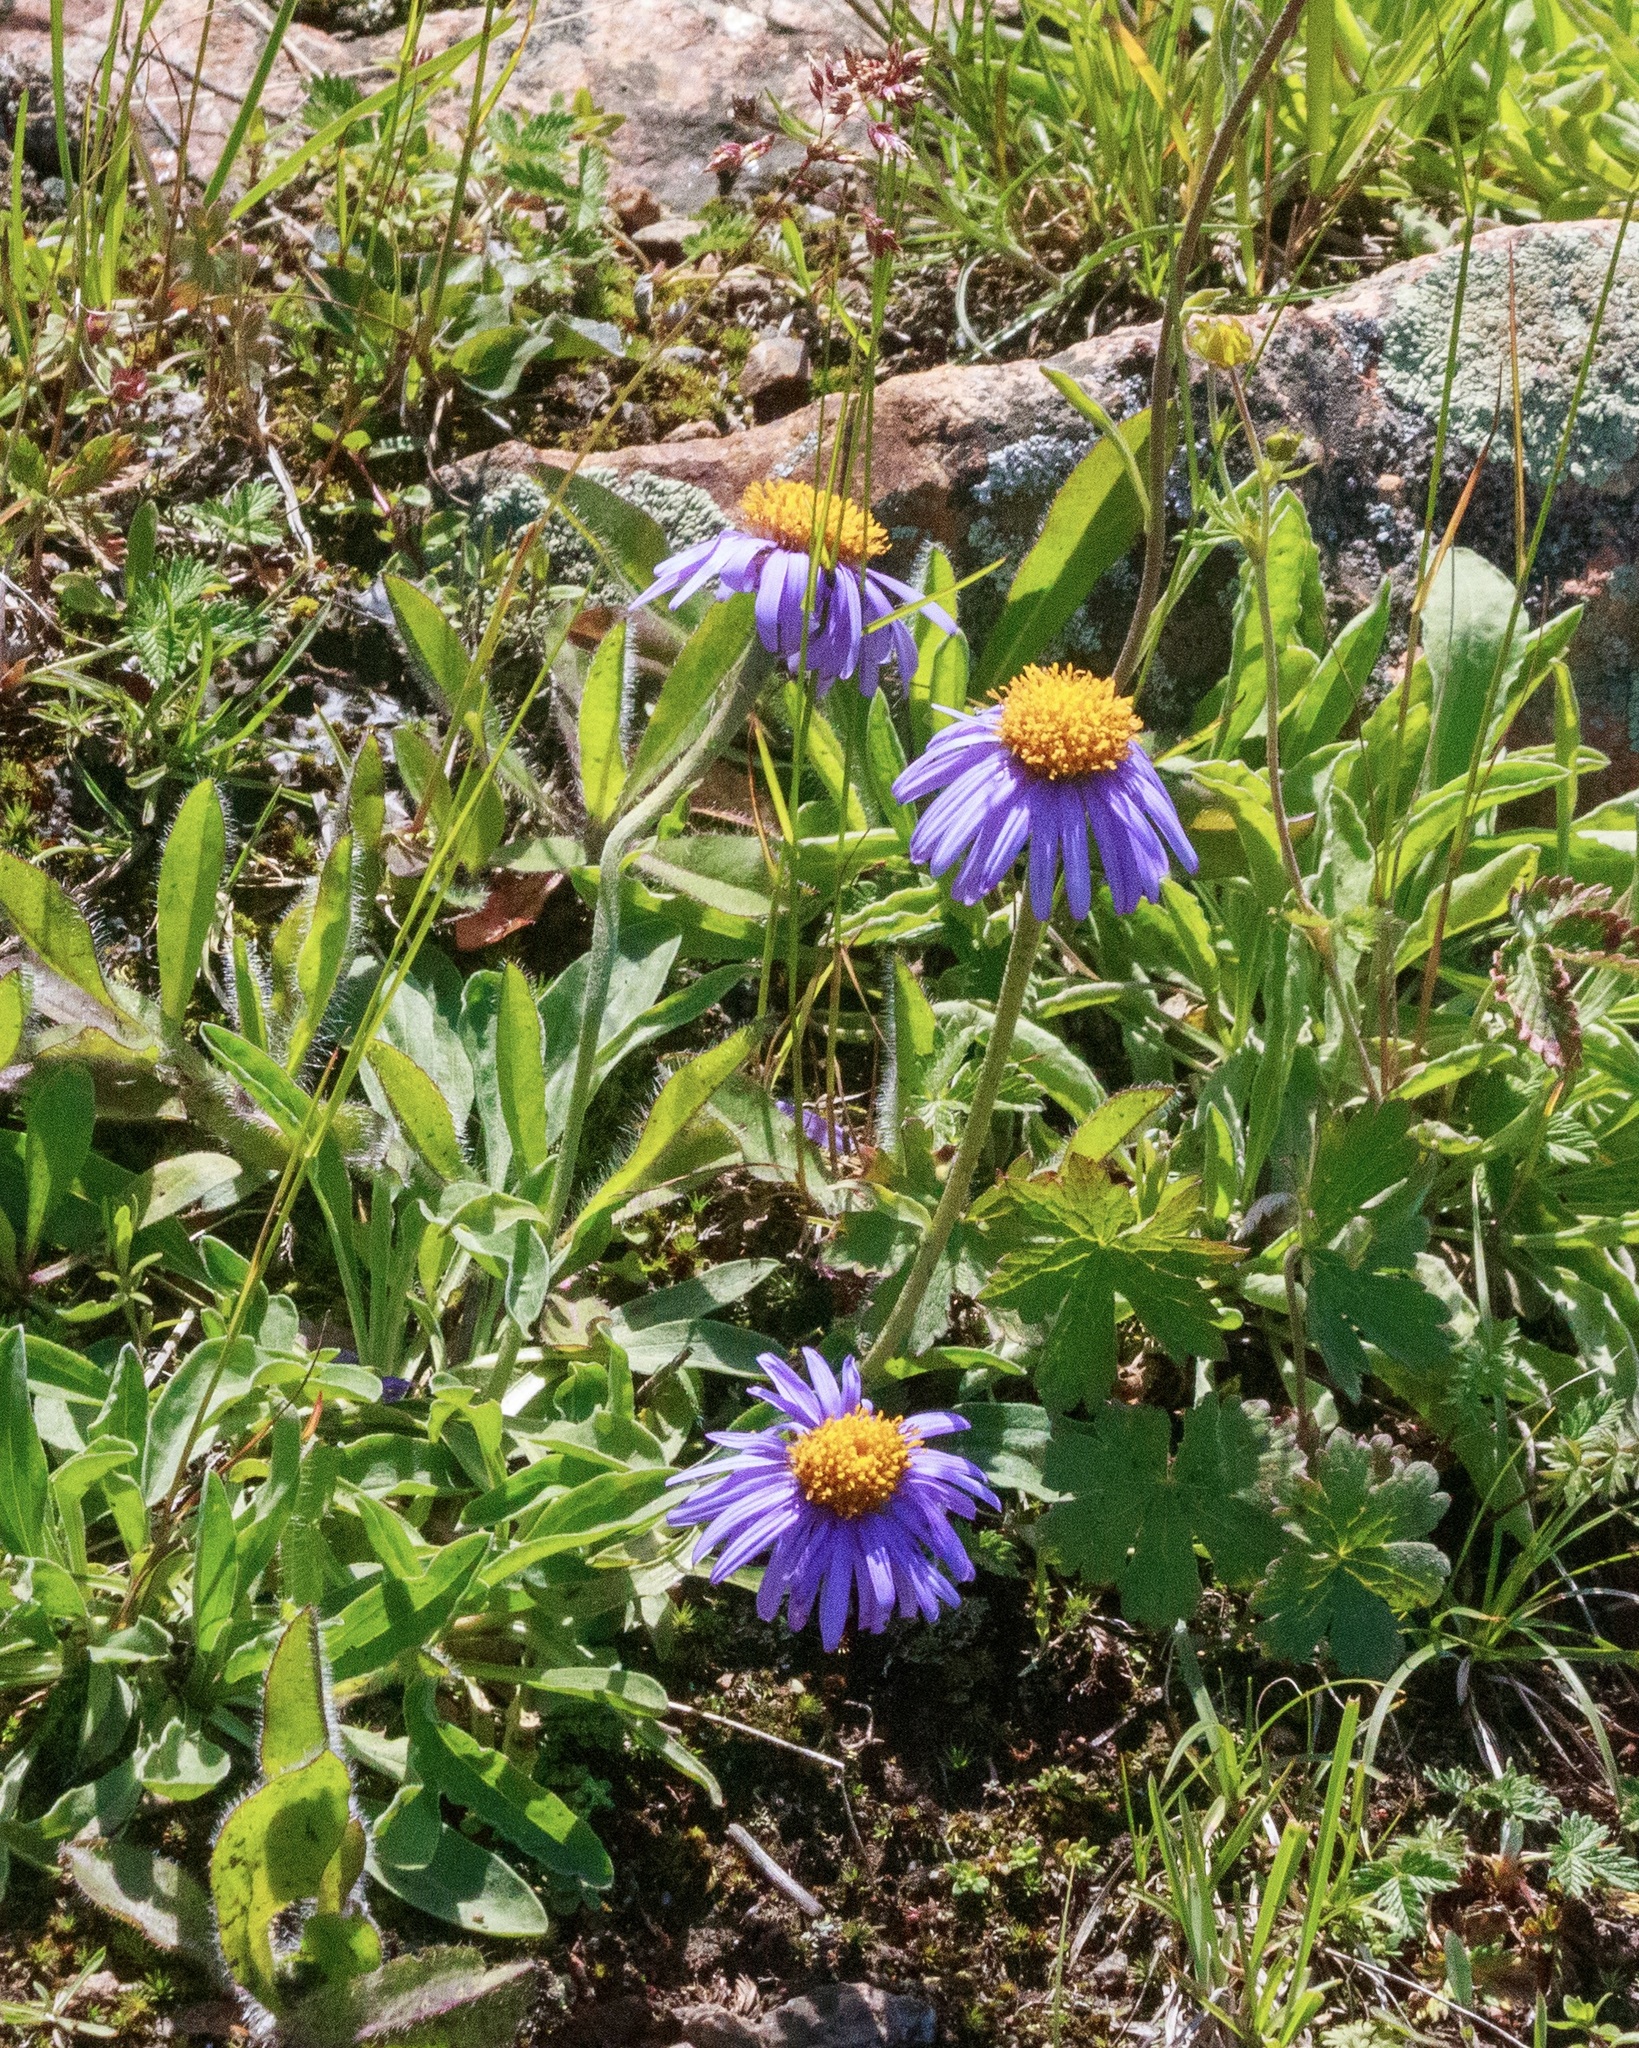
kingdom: Plantae
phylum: Tracheophyta
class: Magnoliopsida
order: Asterales
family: Asteraceae
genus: Aster
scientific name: Aster vvedenskyi
